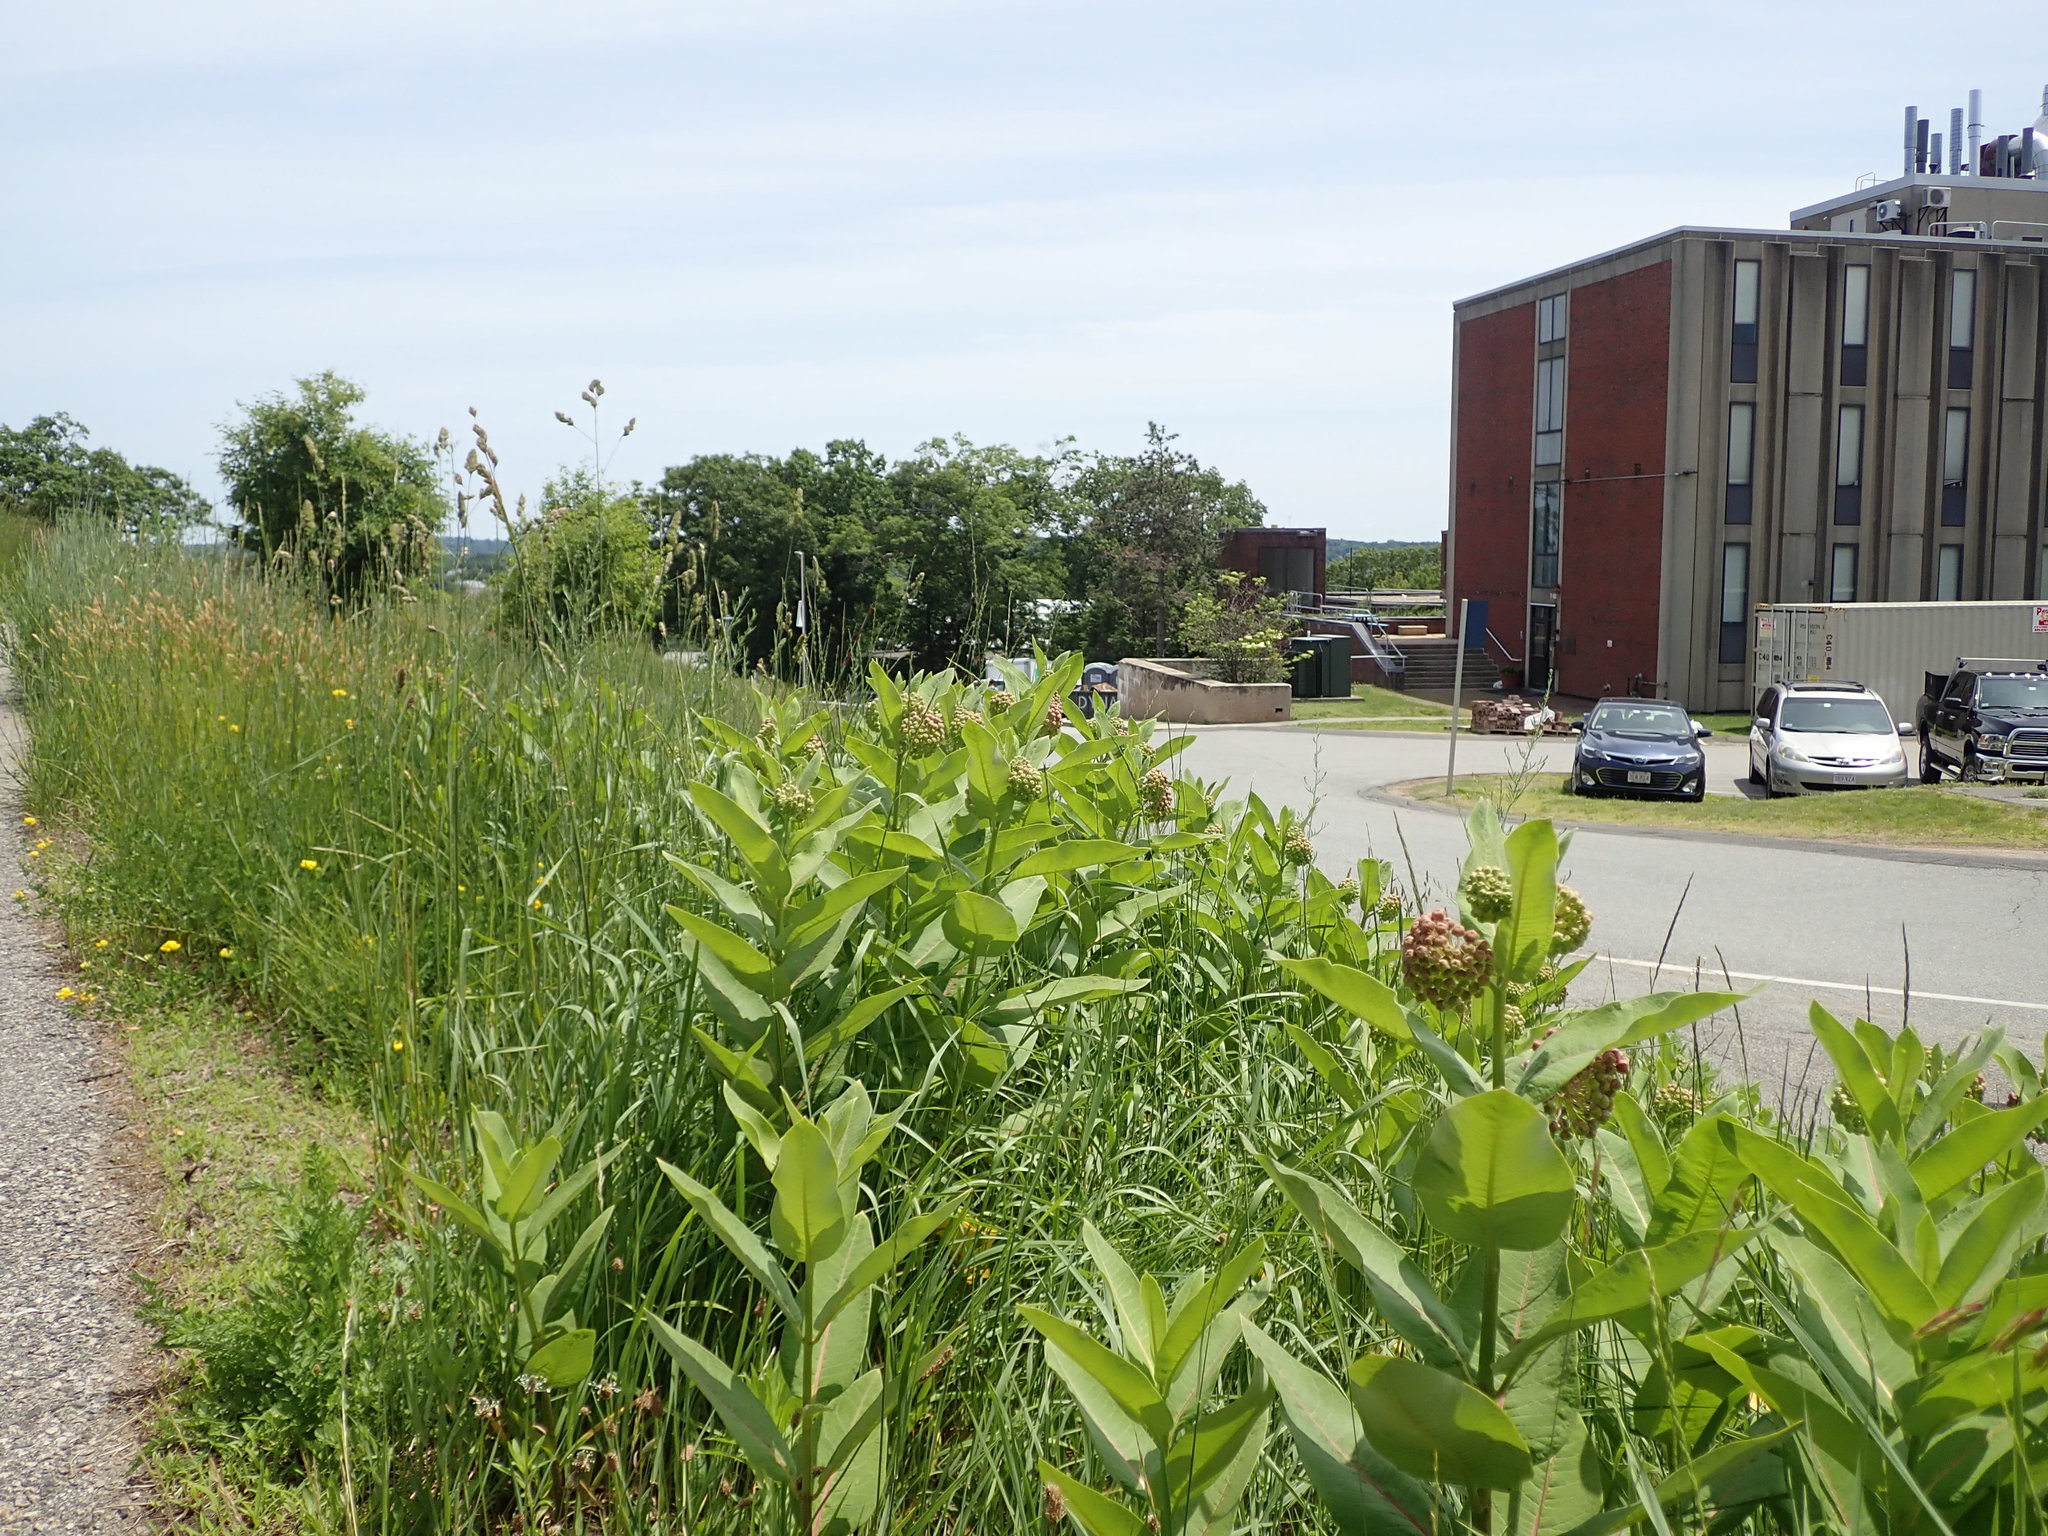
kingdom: Plantae
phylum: Tracheophyta
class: Magnoliopsida
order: Gentianales
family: Apocynaceae
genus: Asclepias
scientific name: Asclepias syriaca
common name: Common milkweed
